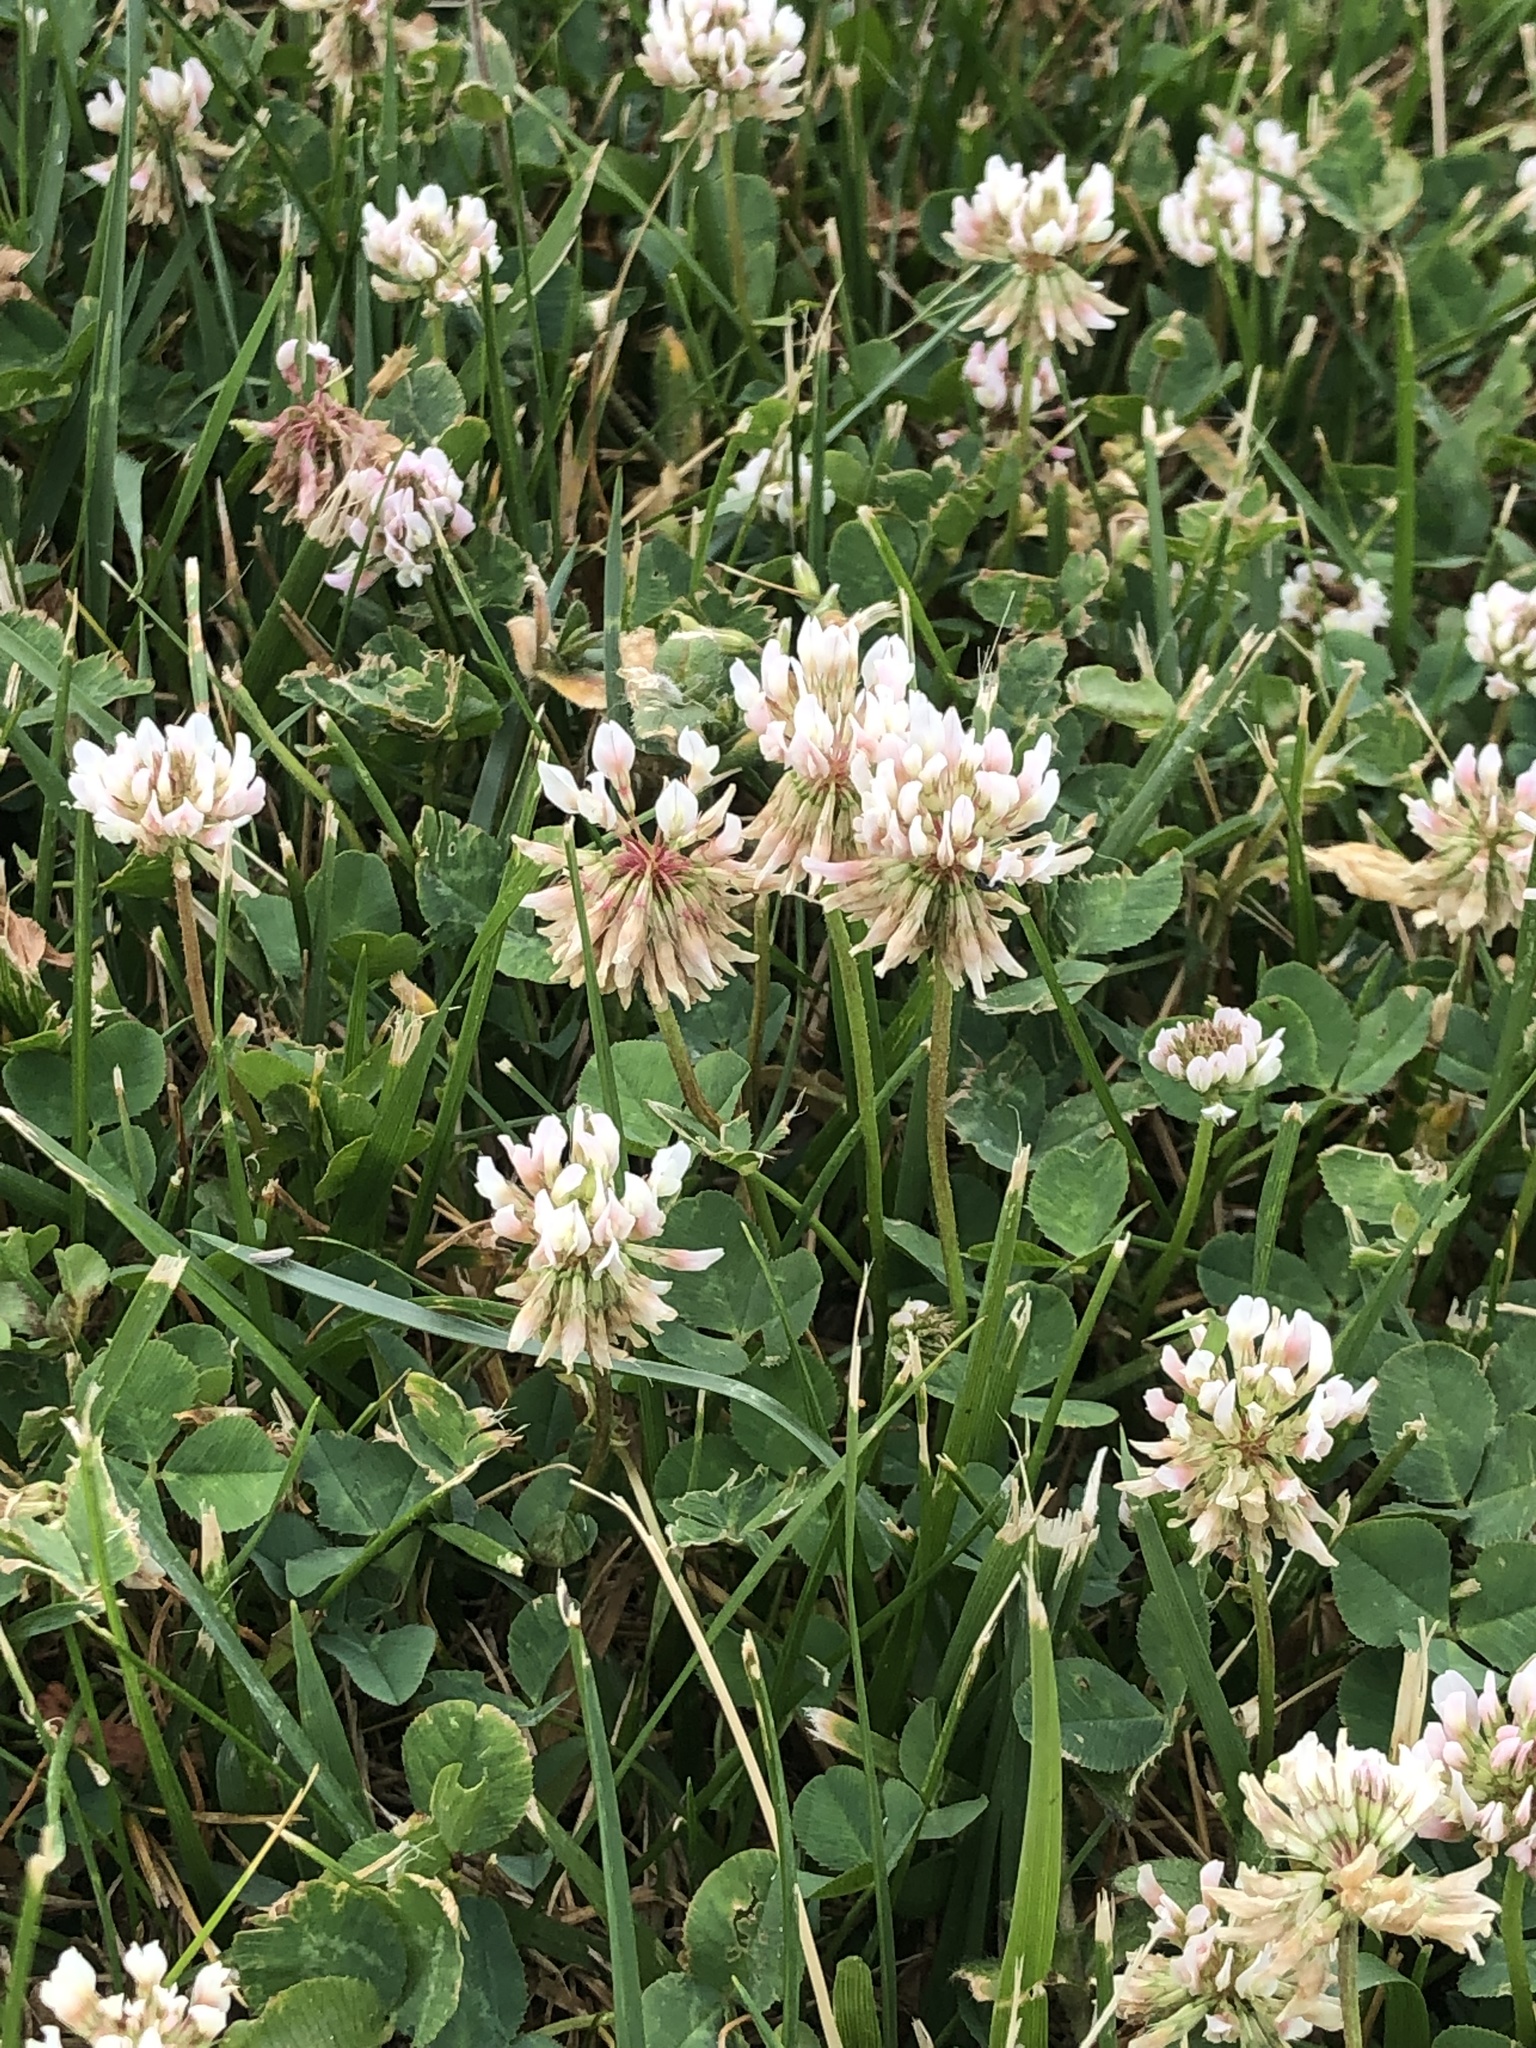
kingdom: Plantae
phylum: Tracheophyta
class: Magnoliopsida
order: Fabales
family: Fabaceae
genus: Trifolium
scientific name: Trifolium repens
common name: White clover
